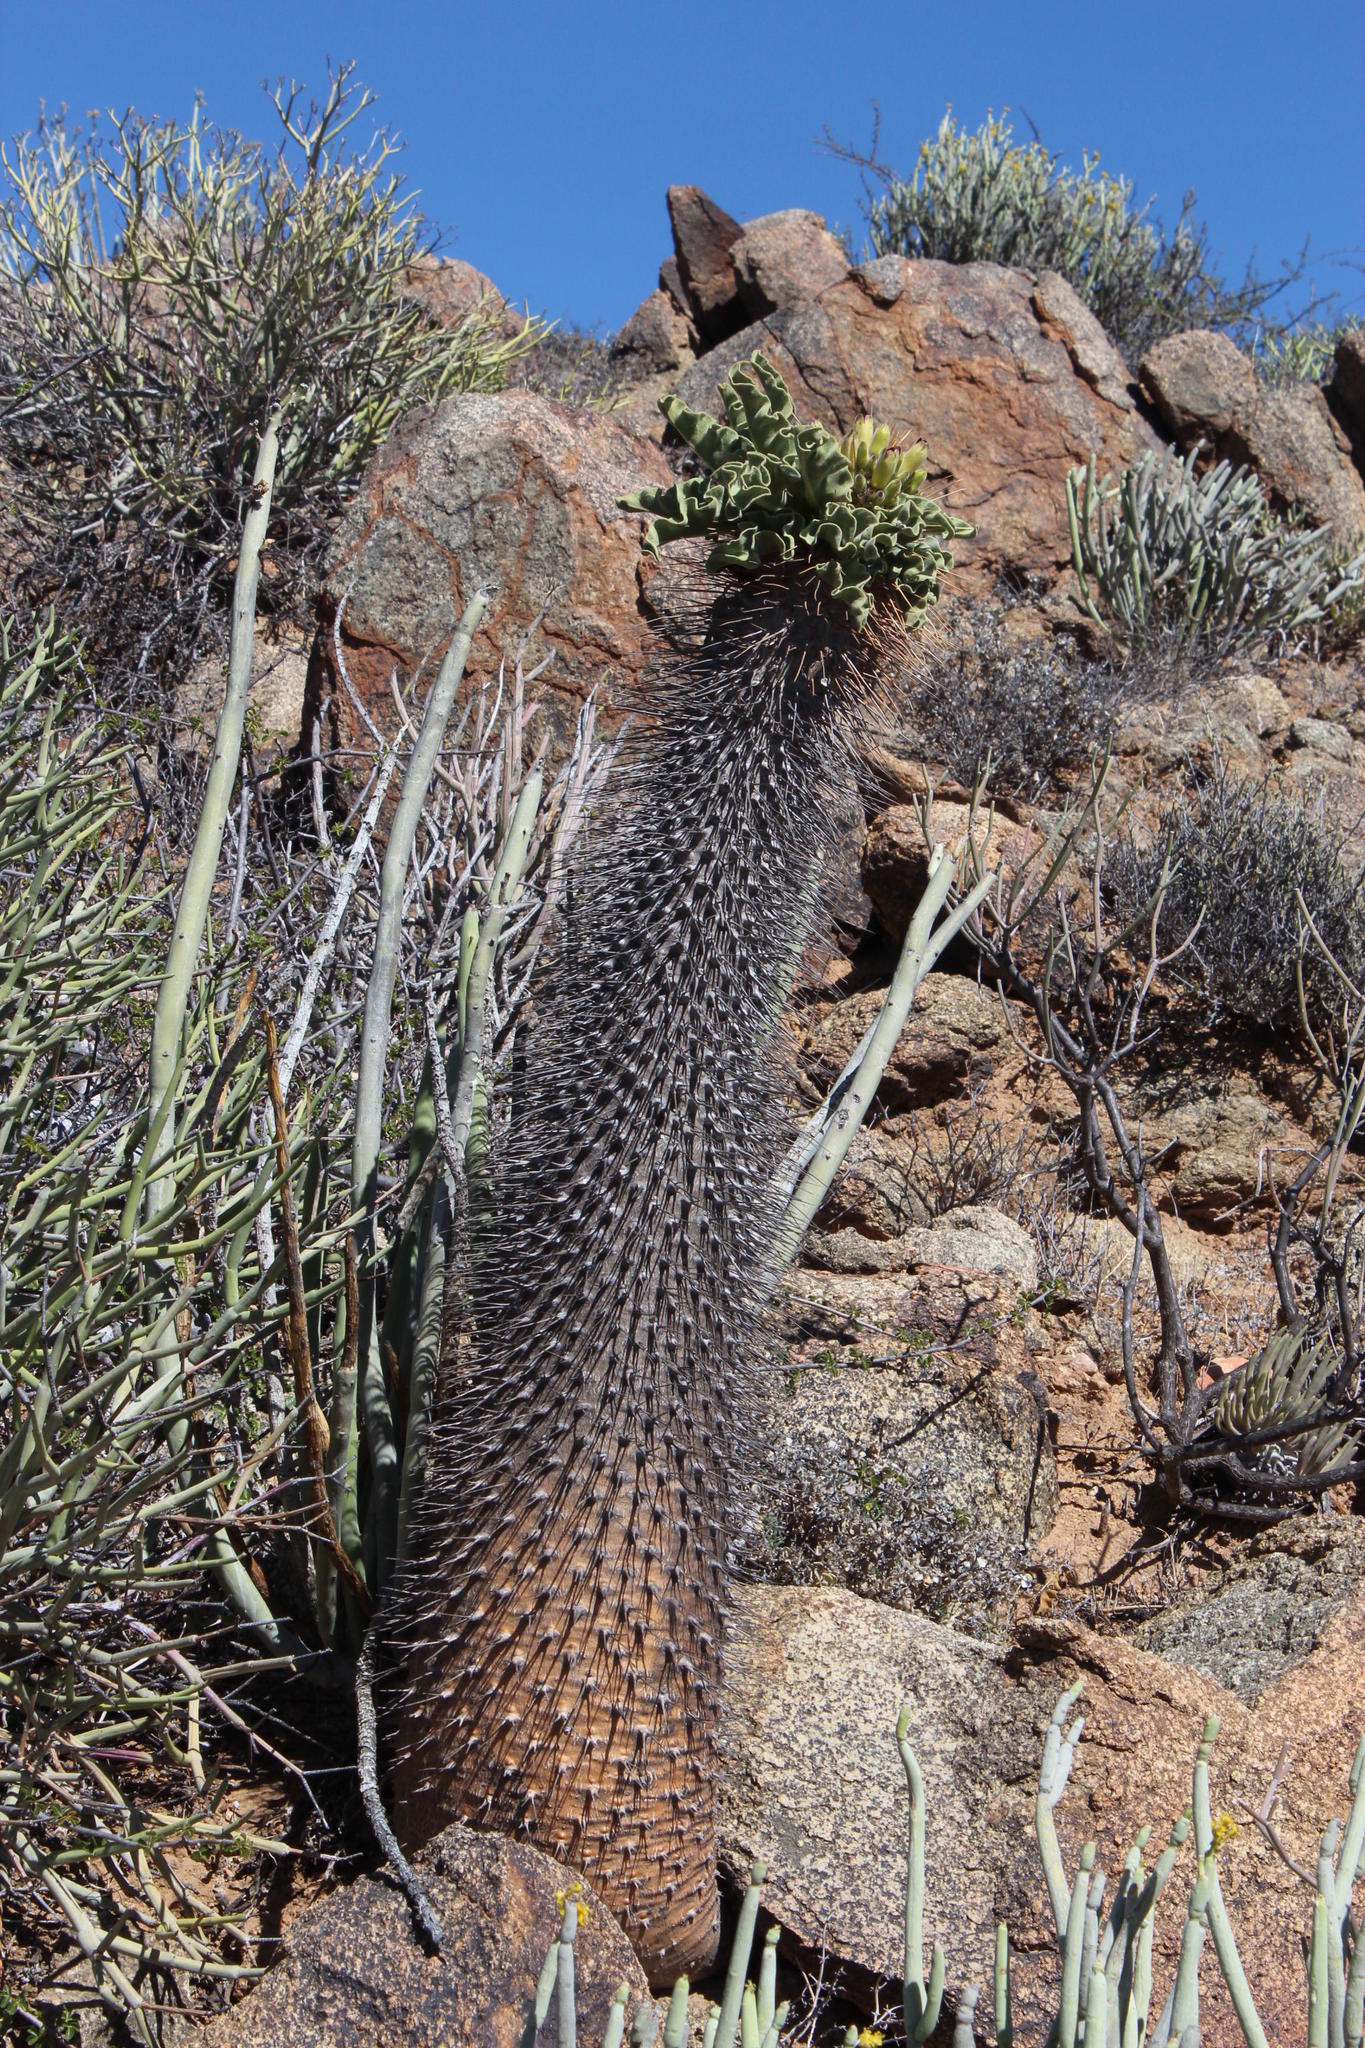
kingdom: Plantae
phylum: Tracheophyta
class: Magnoliopsida
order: Gentianales
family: Apocynaceae
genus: Pachypodium
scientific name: Pachypodium namaquanum
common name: Elephant's trunk
